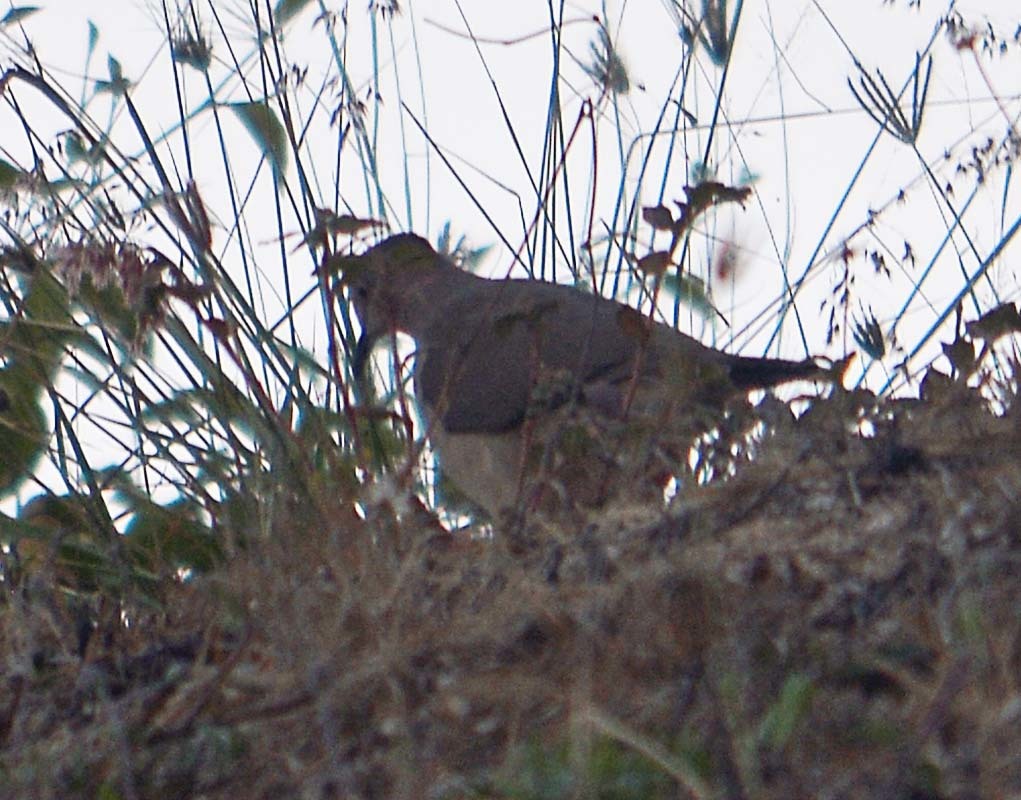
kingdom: Animalia
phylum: Chordata
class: Aves
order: Columbiformes
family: Columbidae
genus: Leptotila
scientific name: Leptotila verreauxi
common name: White-tipped dove
